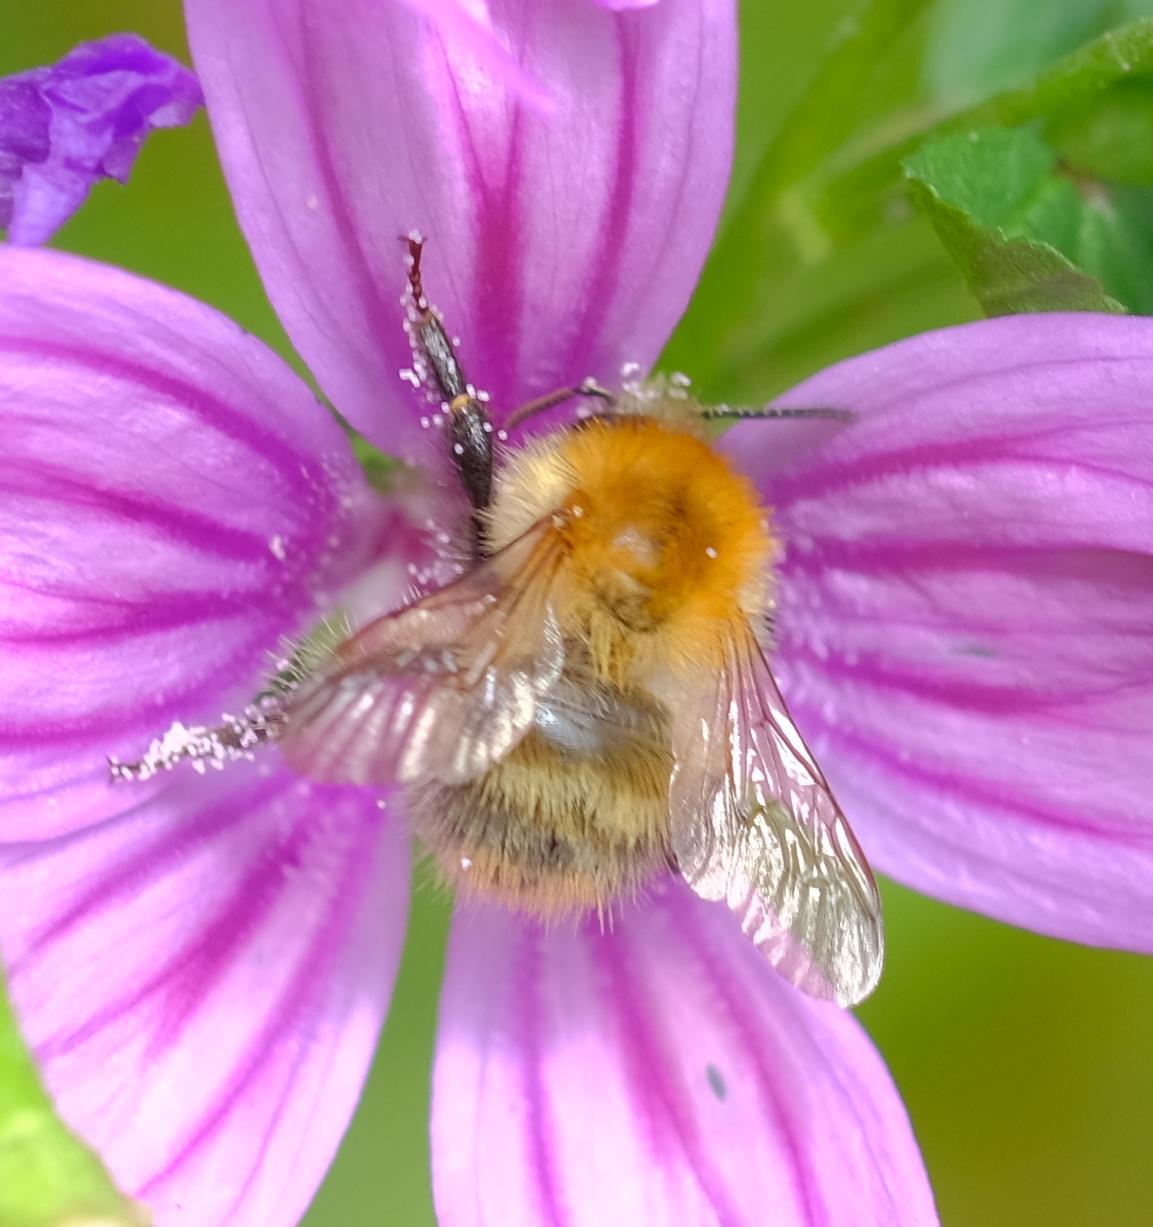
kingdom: Animalia
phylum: Arthropoda
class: Insecta
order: Hymenoptera
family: Apidae
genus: Bombus
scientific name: Bombus pascuorum
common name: Common carder bee
